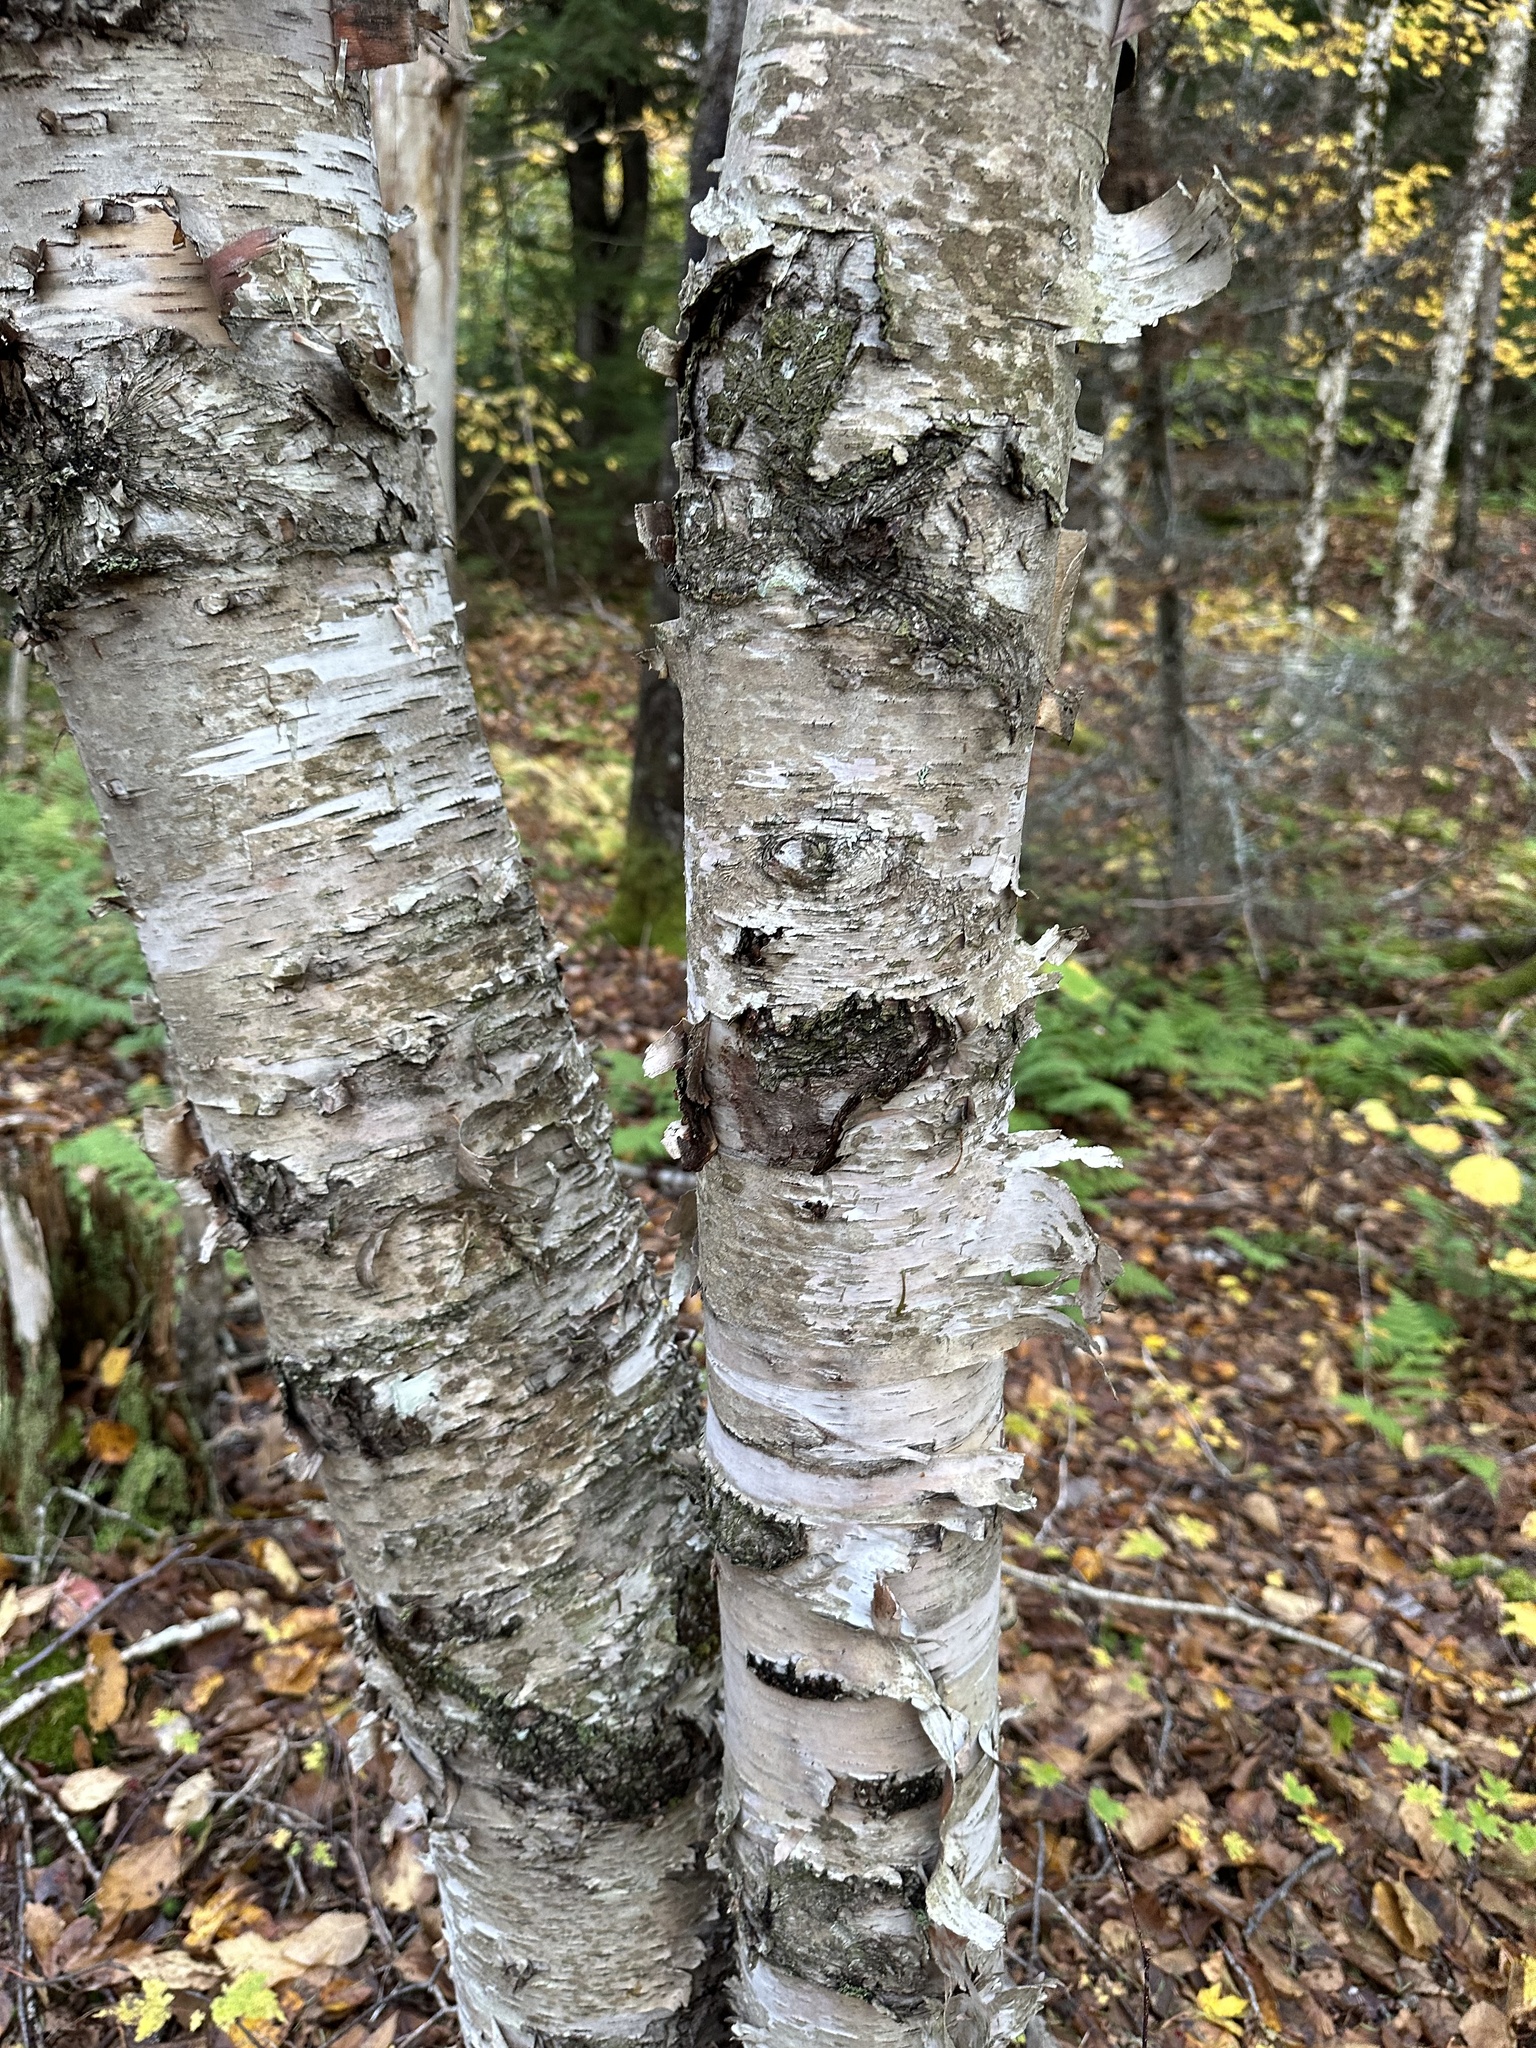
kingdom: Plantae
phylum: Tracheophyta
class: Magnoliopsida
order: Fagales
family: Betulaceae
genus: Betula
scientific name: Betula papyrifera
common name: Paper birch
